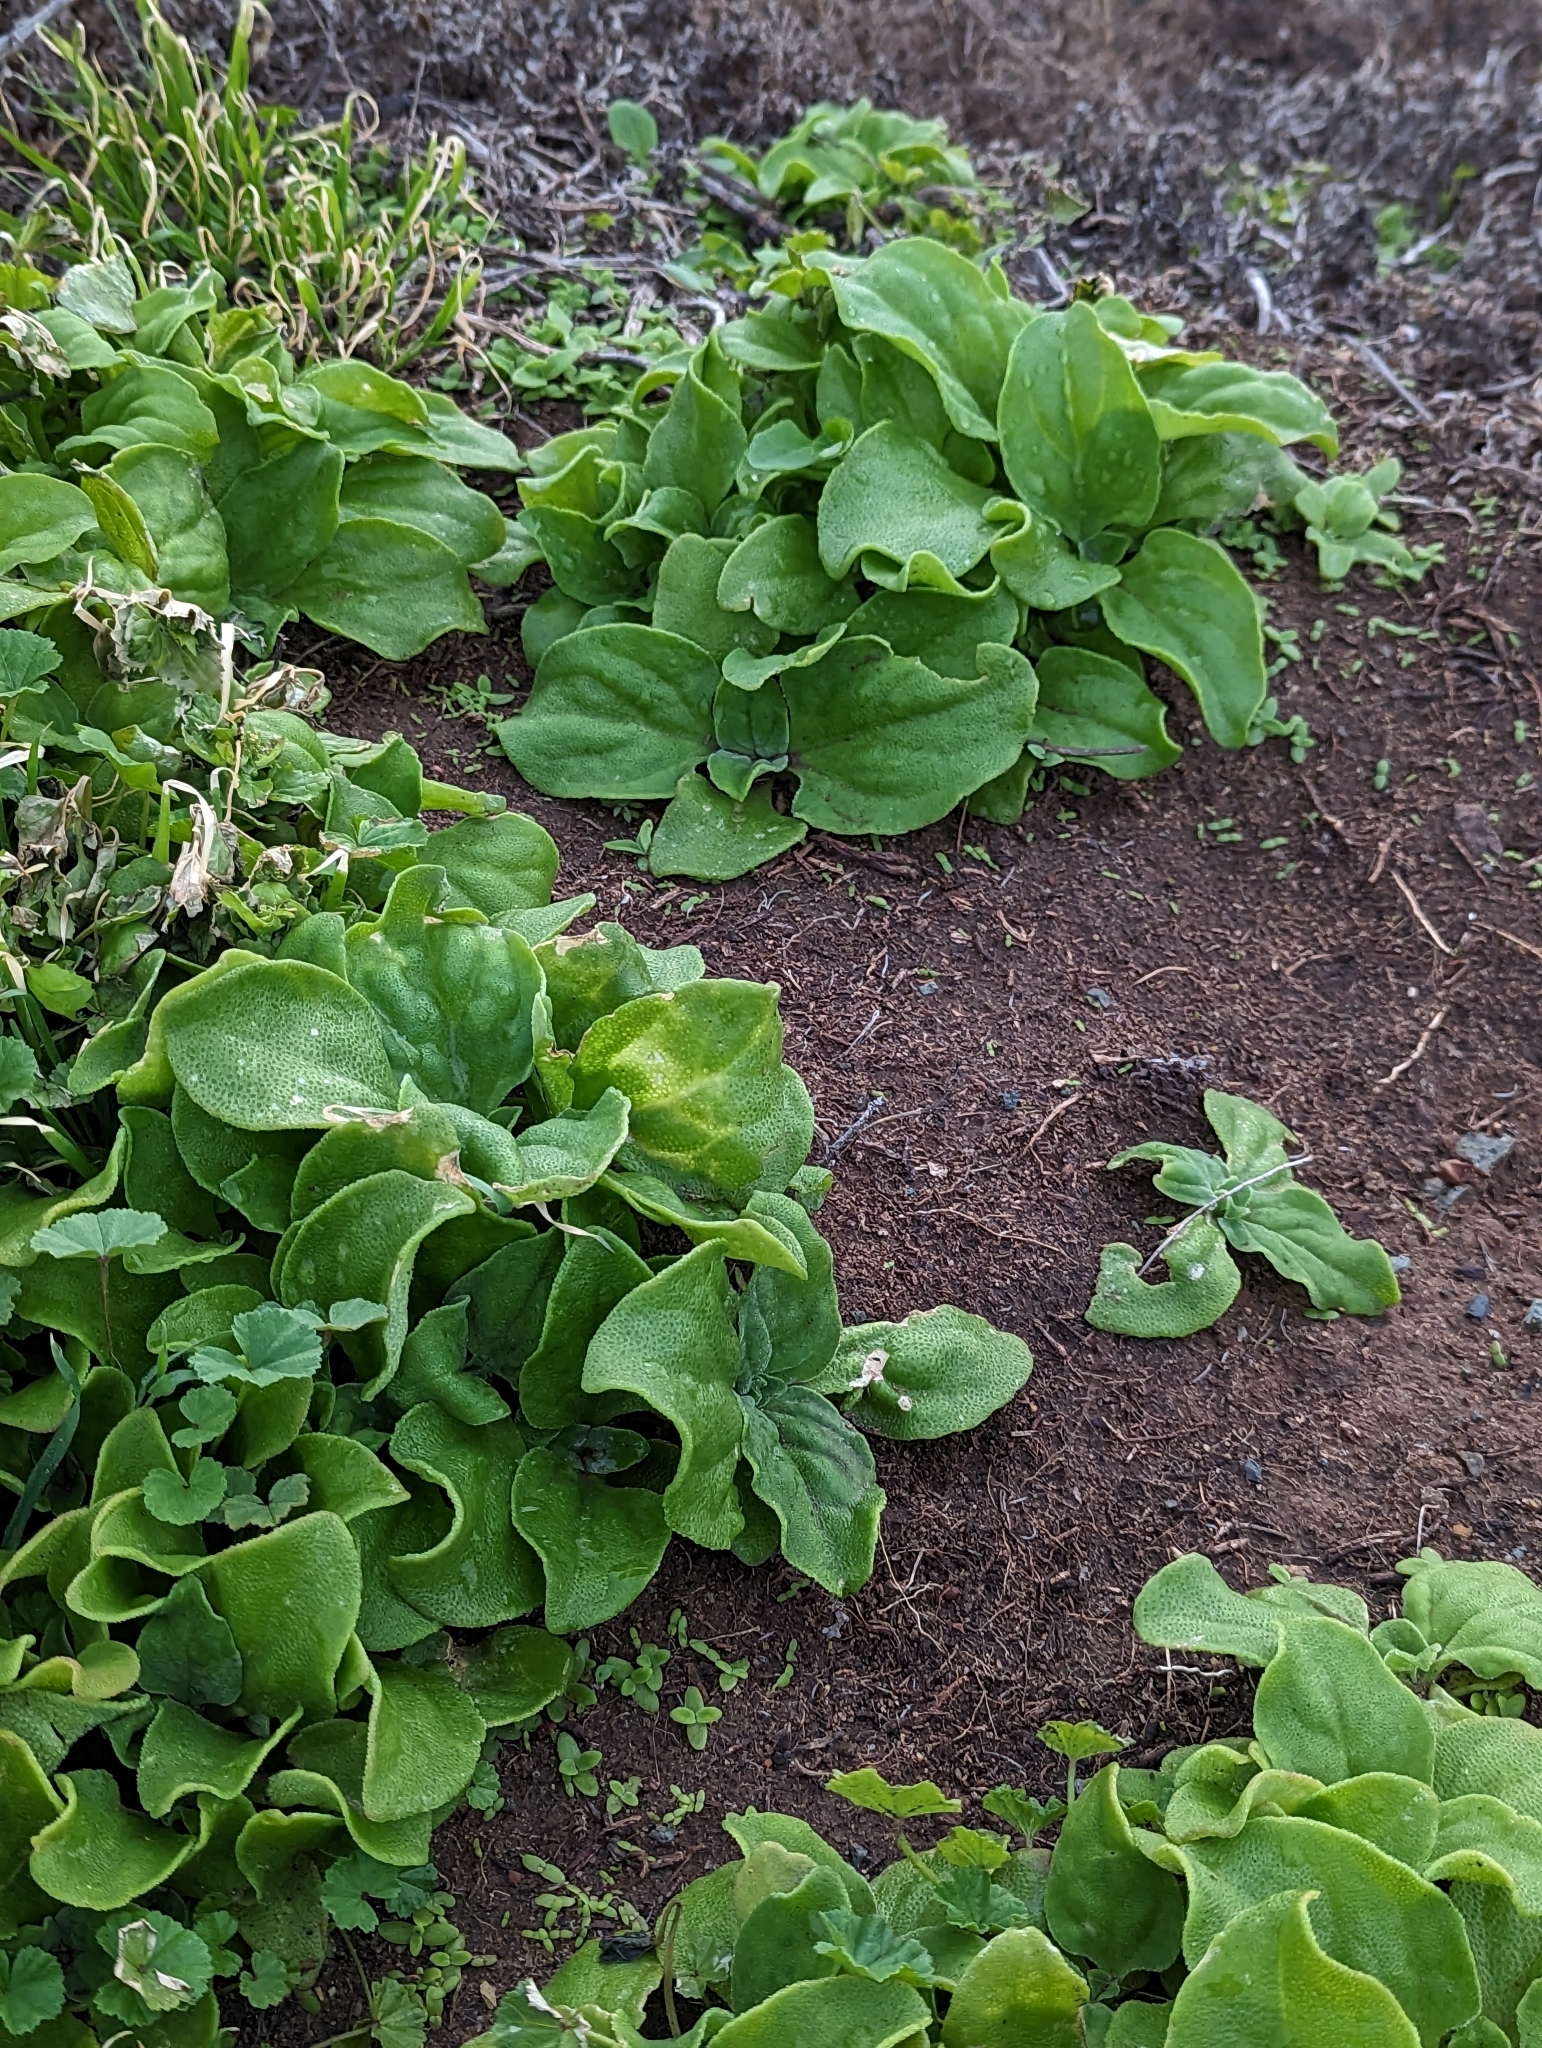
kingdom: Plantae
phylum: Tracheophyta
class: Magnoliopsida
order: Caryophyllales
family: Aizoaceae
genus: Mesembryanthemum
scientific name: Mesembryanthemum crystallinum
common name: Common iceplant
